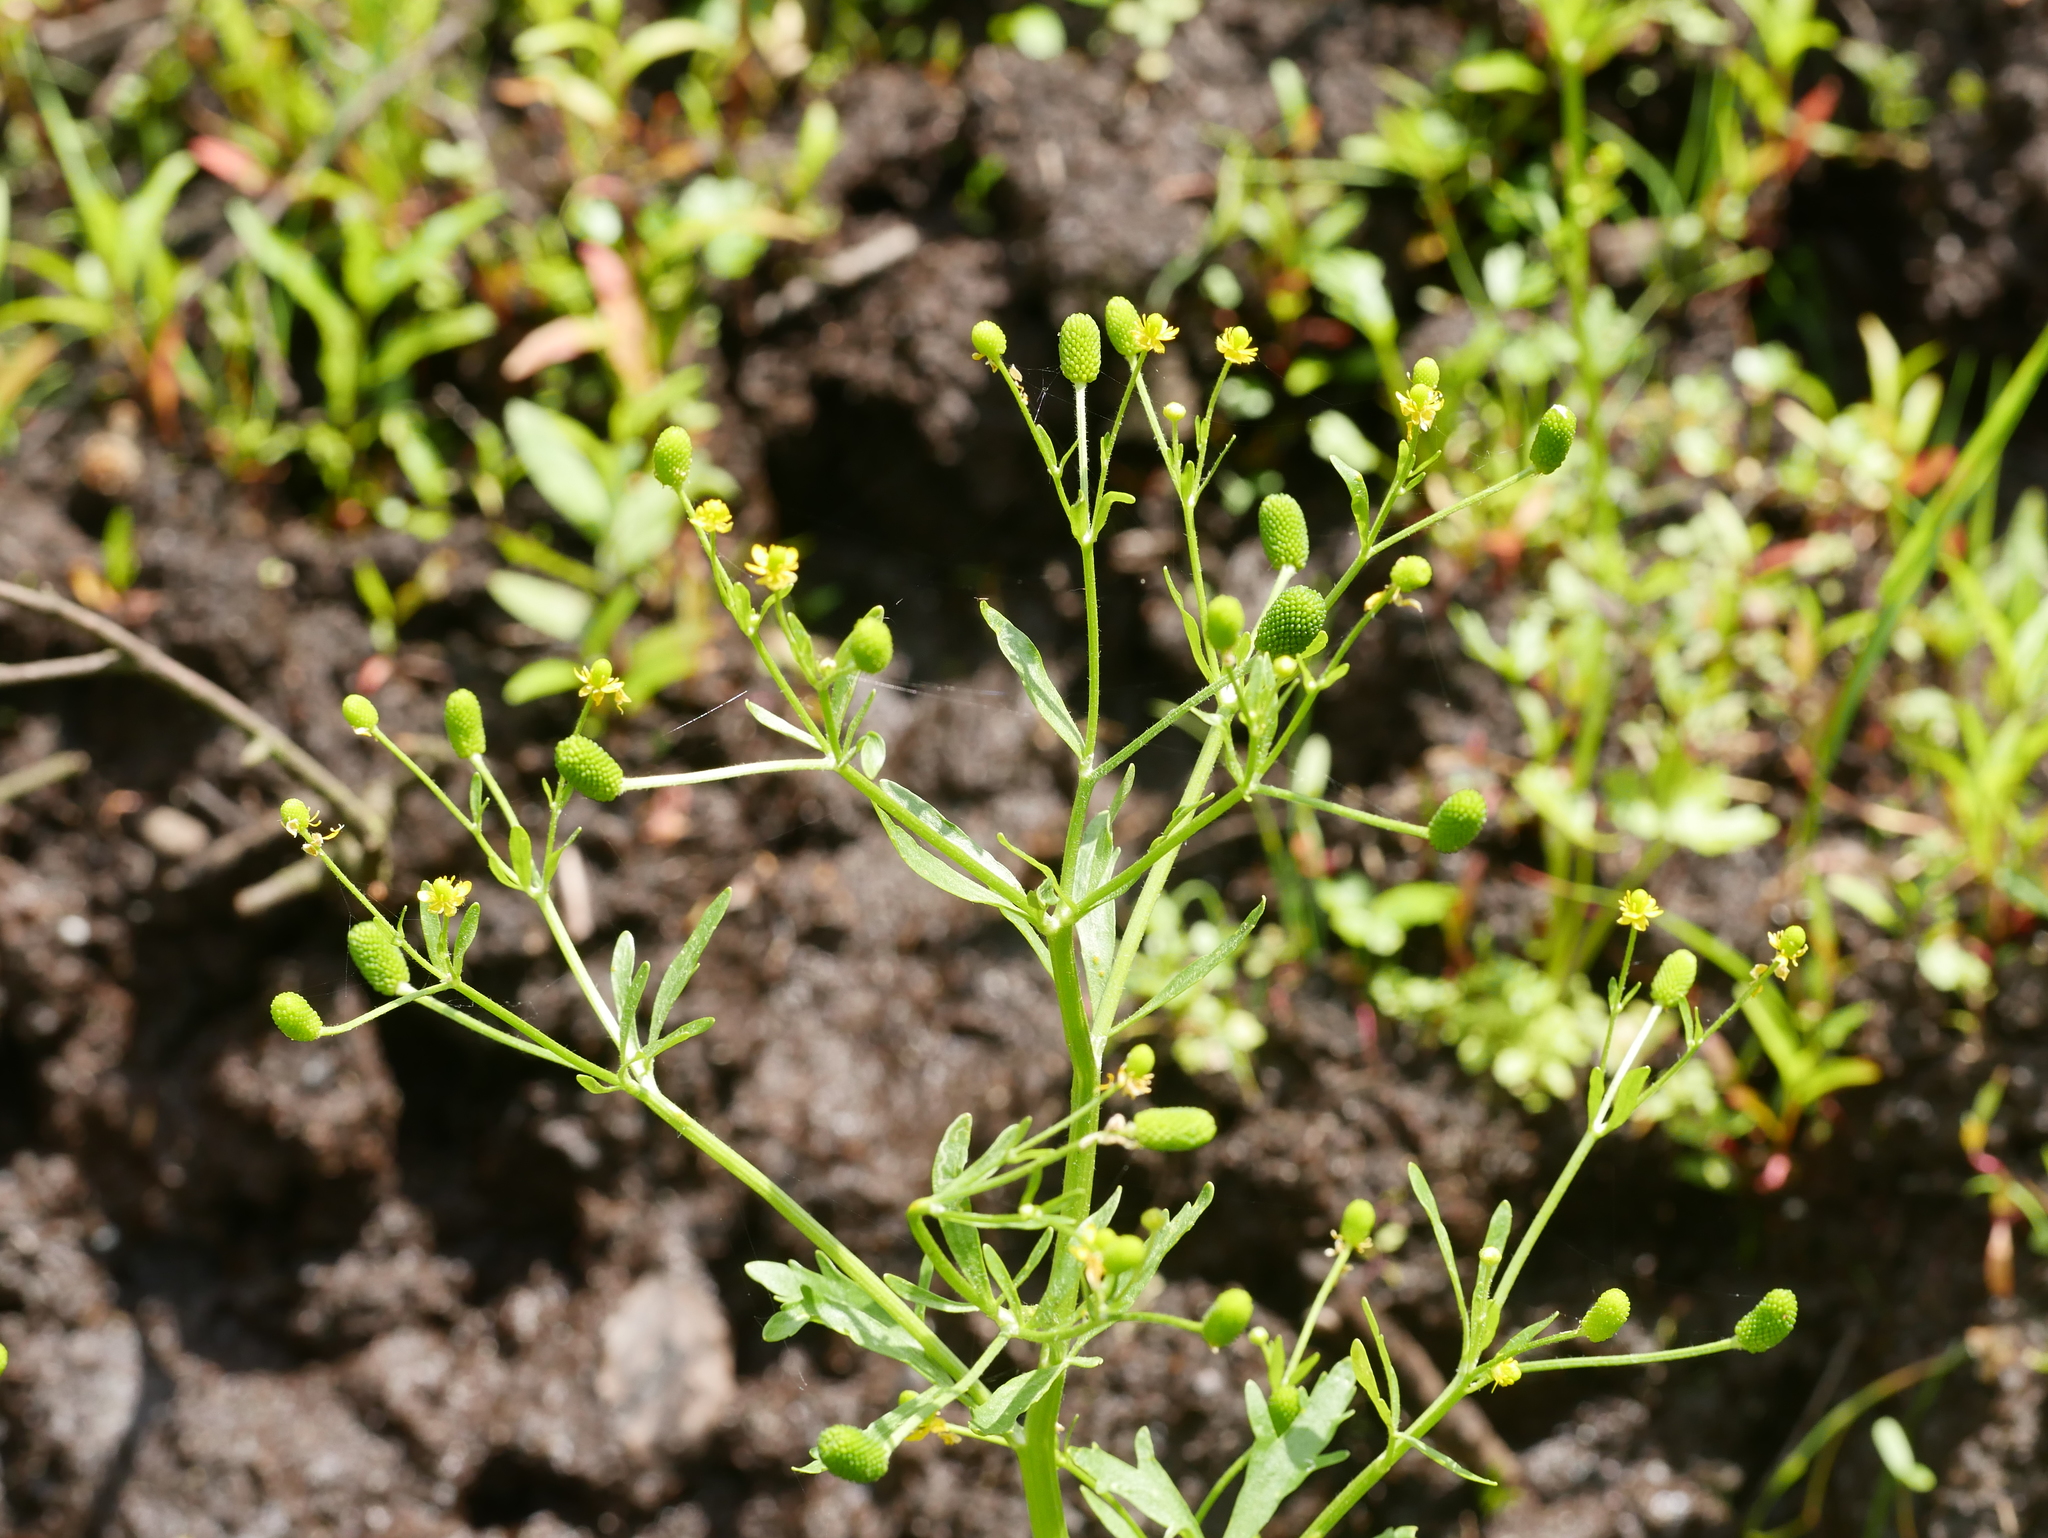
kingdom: Plantae
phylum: Tracheophyta
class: Magnoliopsida
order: Ranunculales
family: Ranunculaceae
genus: Ranunculus
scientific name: Ranunculus sceleratus
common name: Celery-leaved buttercup
